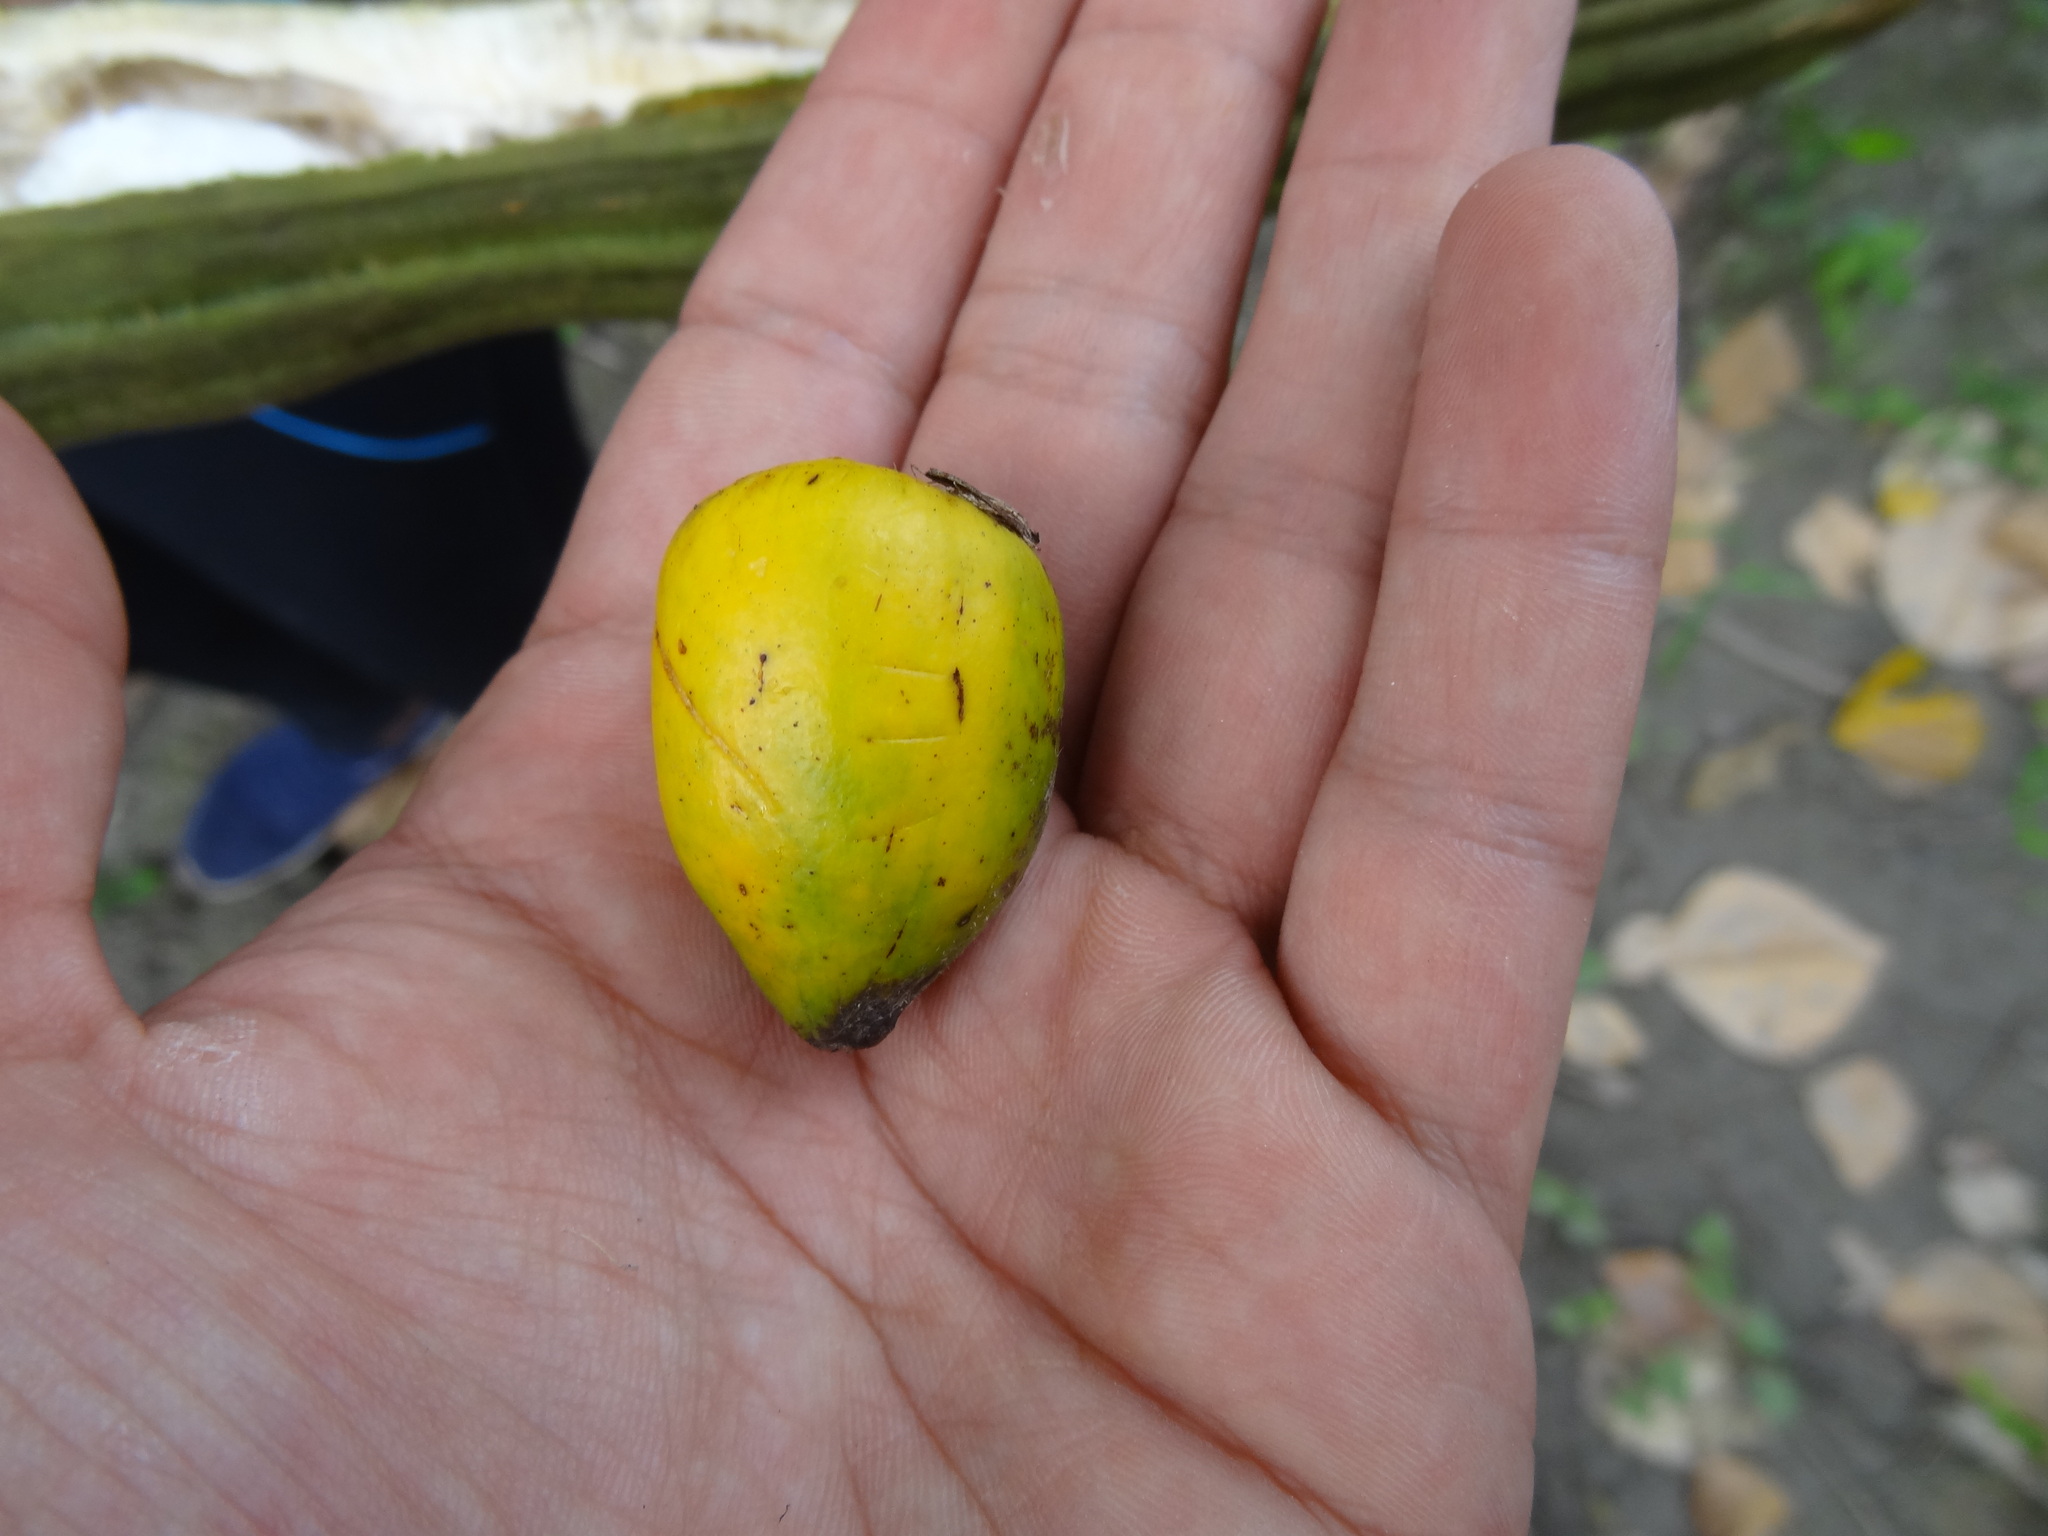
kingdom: Plantae
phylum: Tracheophyta
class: Liliopsida
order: Arecales
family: Arecaceae
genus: Bactris
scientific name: Bactris gasipaes
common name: Peach palm
